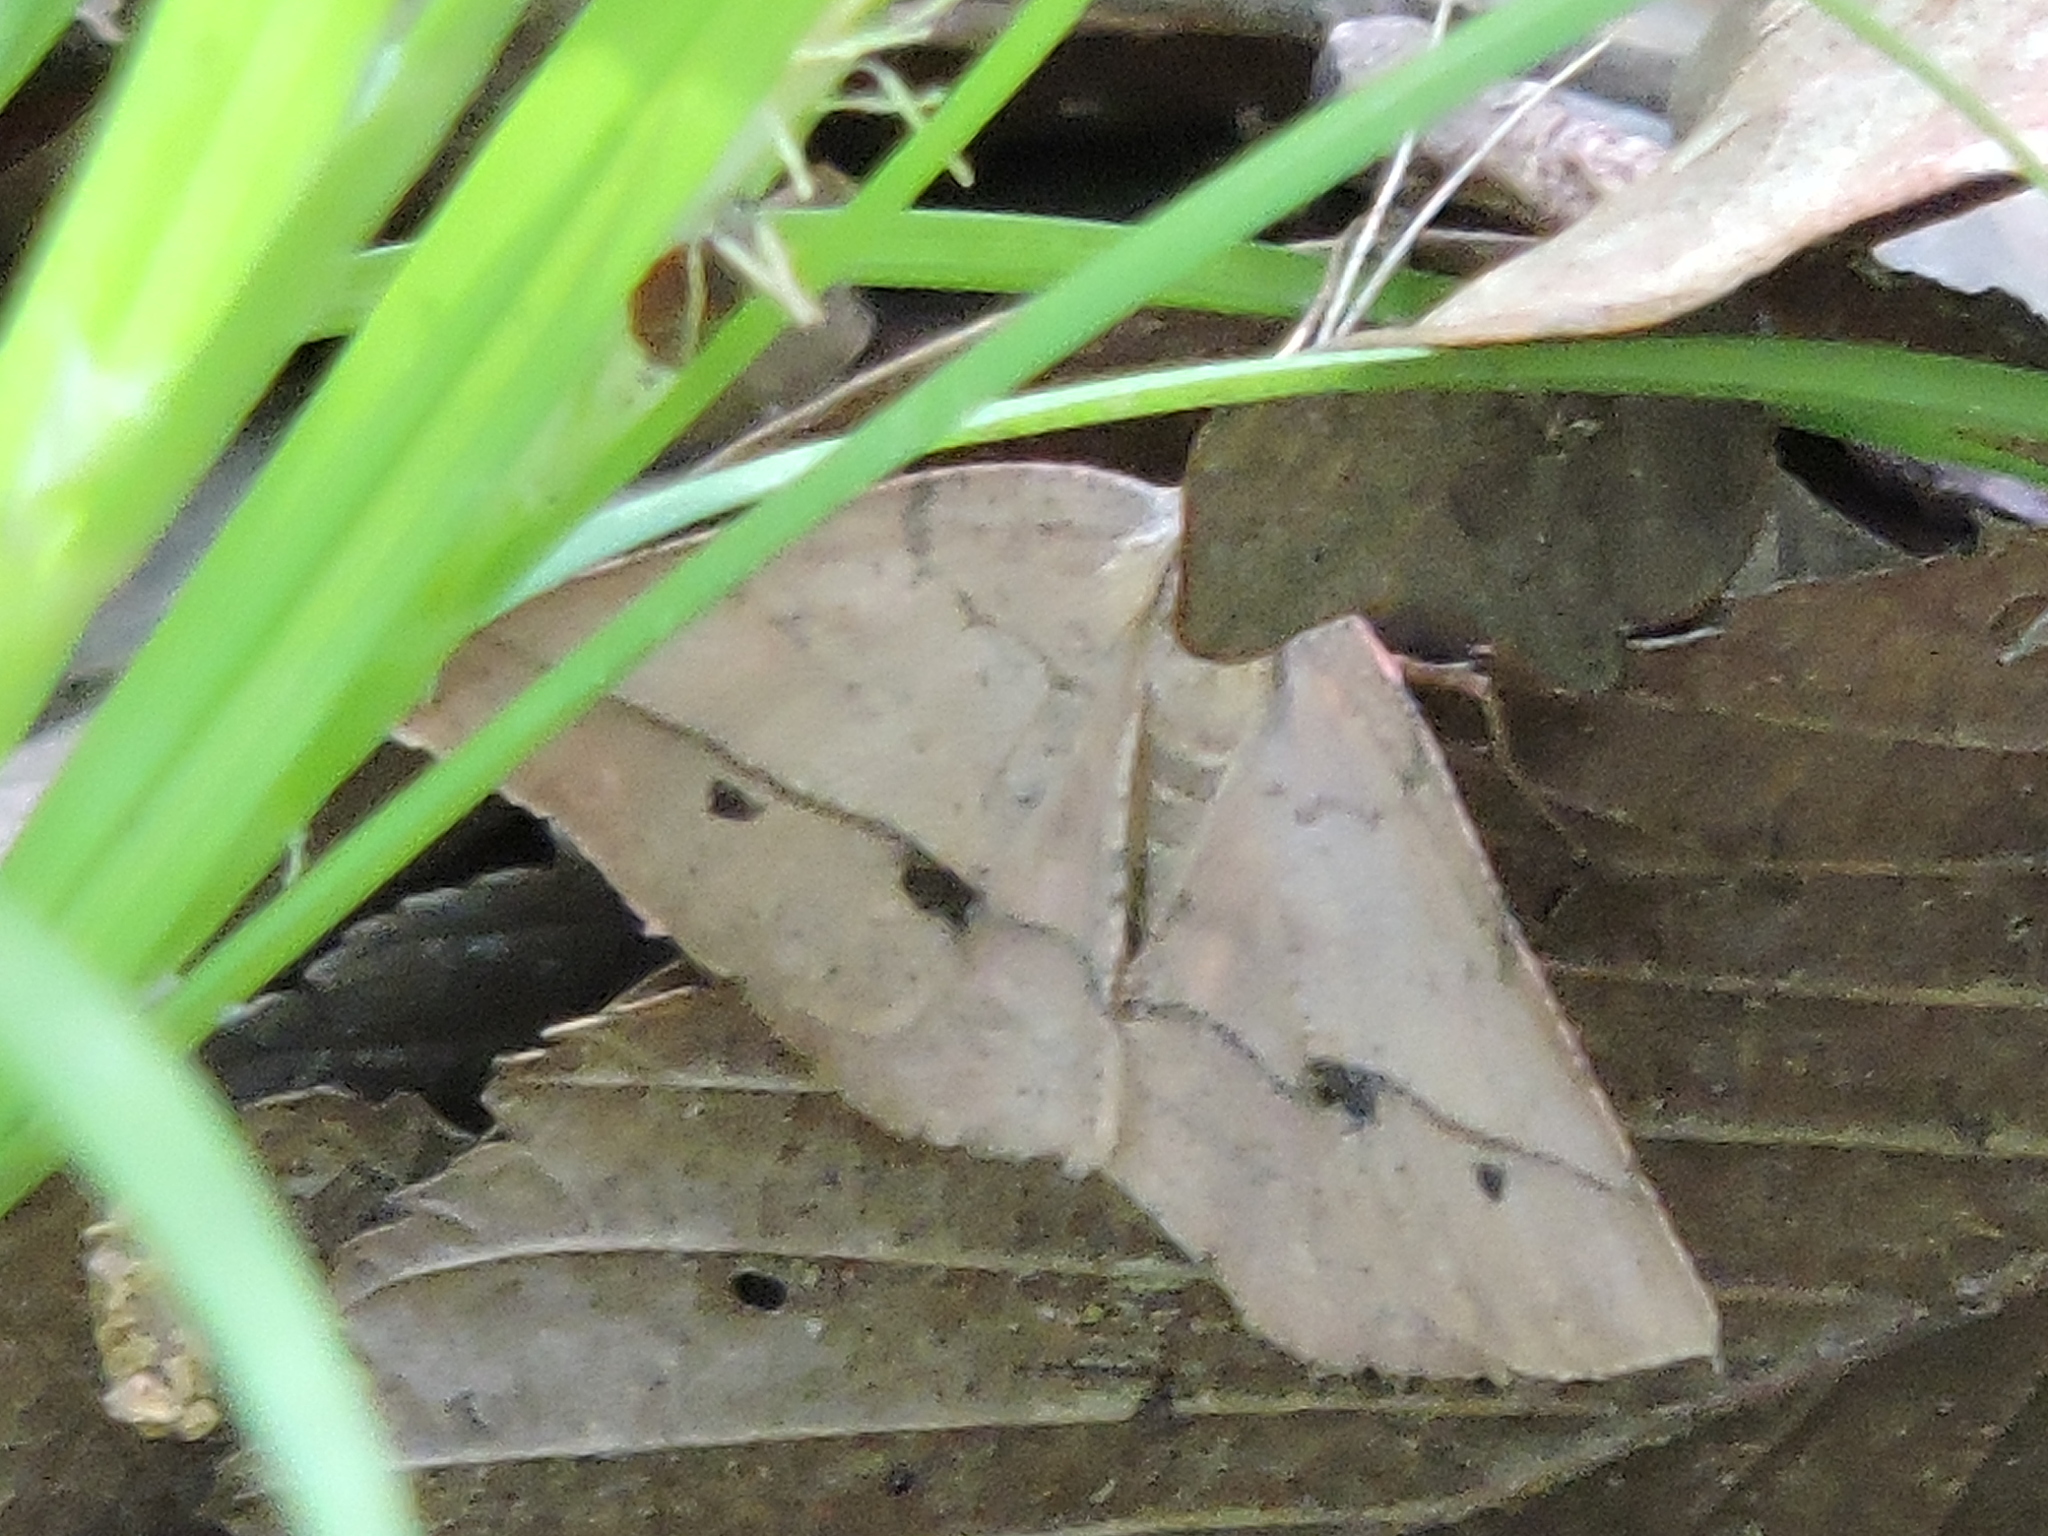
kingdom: Animalia
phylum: Arthropoda
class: Insecta
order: Lepidoptera
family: Geometridae
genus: Erastria
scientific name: Erastria cruentaria
